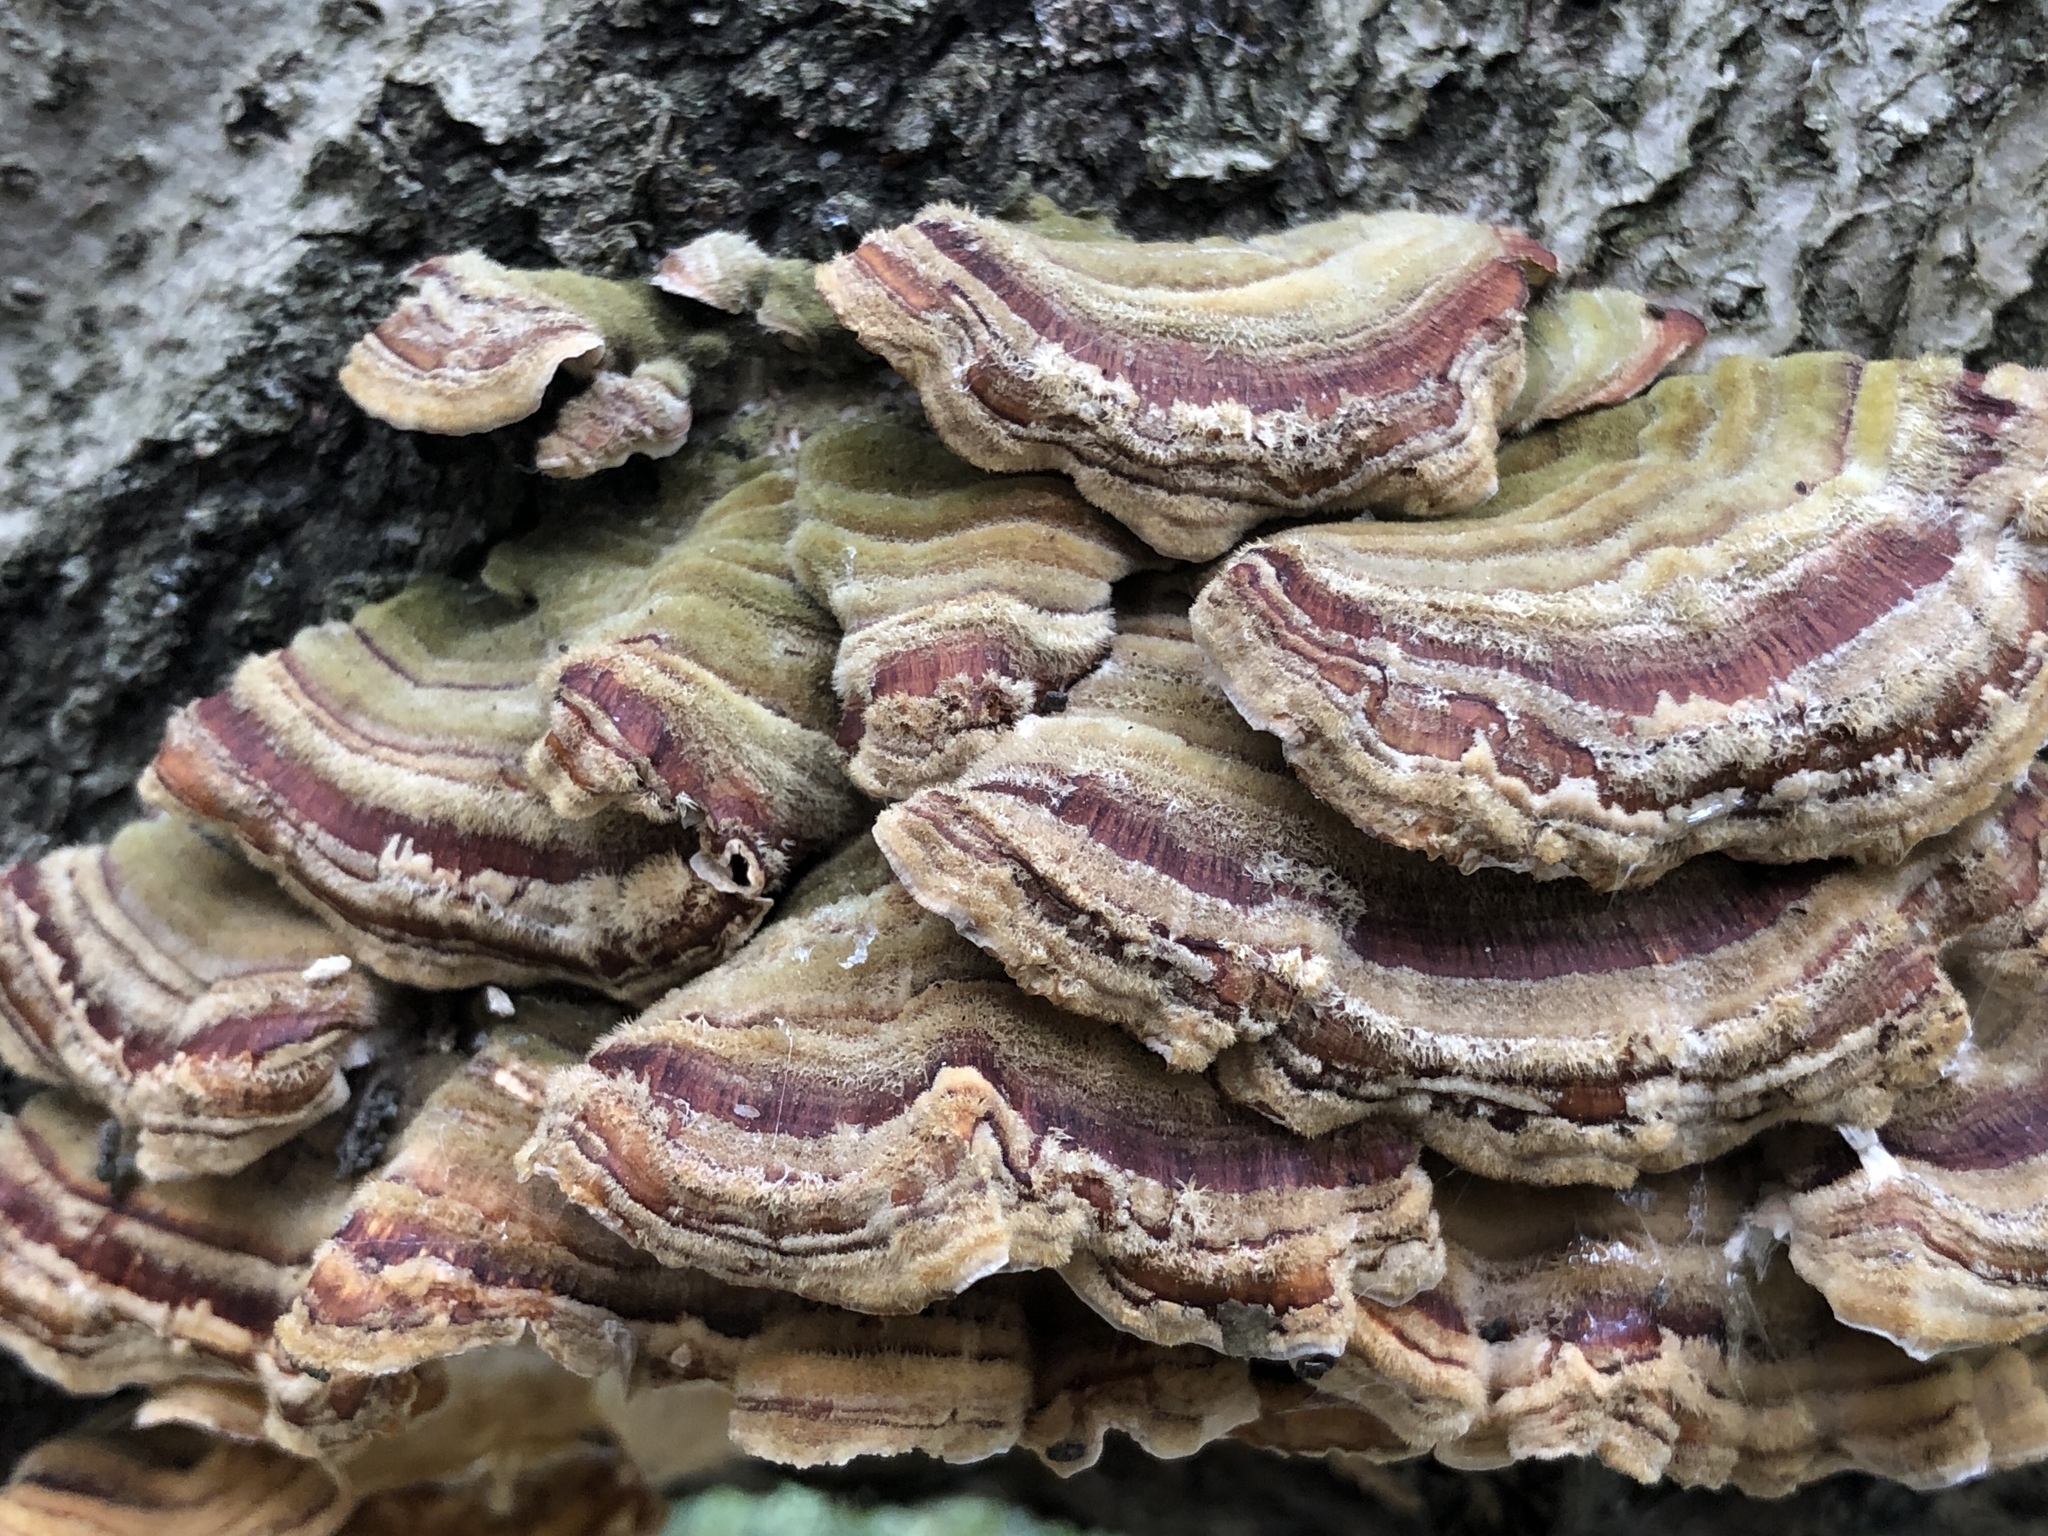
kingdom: Fungi
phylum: Basidiomycota
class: Agaricomycetes
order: Polyporales
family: Polyporaceae
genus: Trametes
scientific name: Trametes versicolor
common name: Turkeytail
